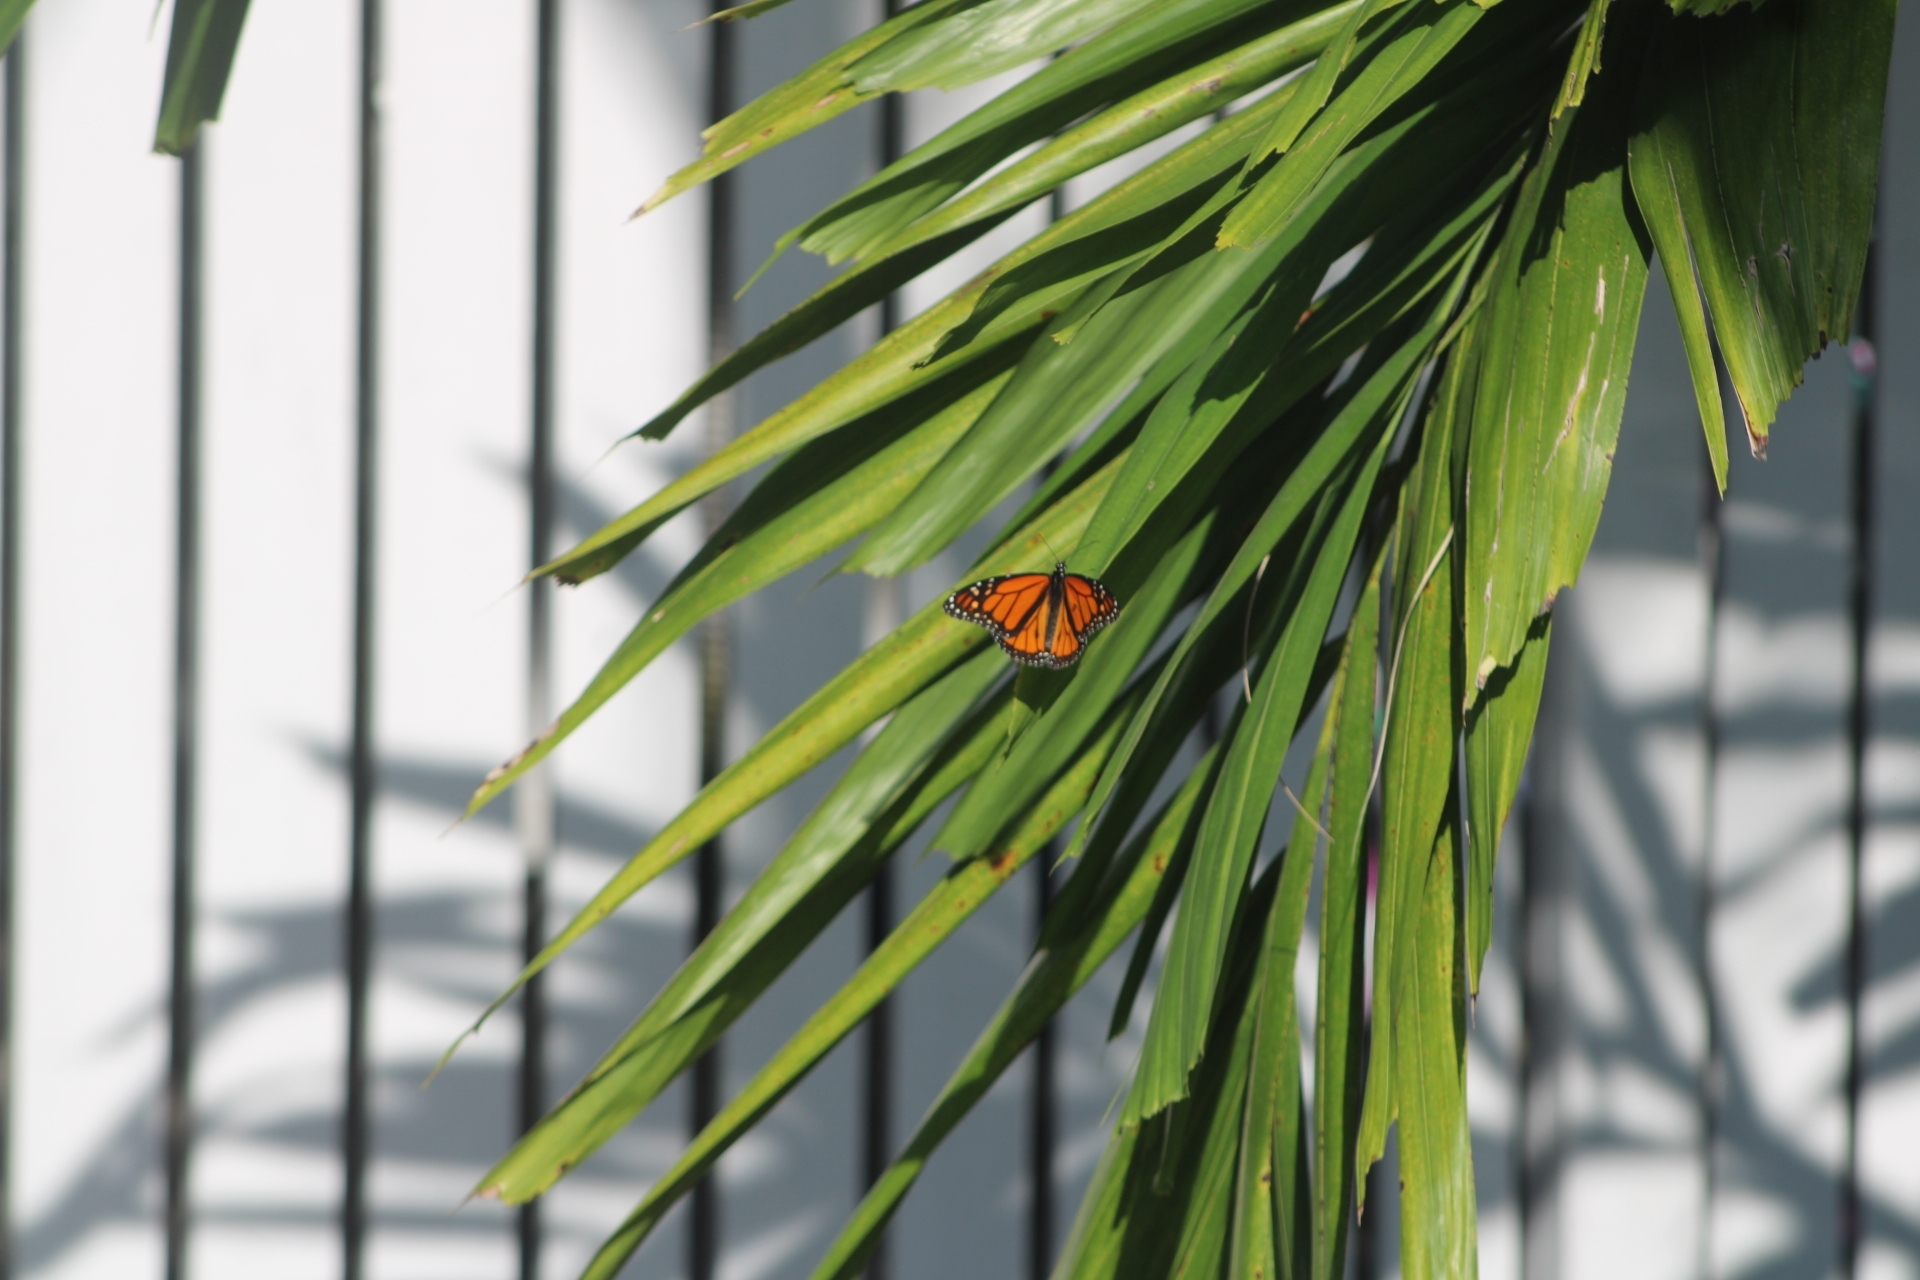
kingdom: Animalia
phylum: Arthropoda
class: Insecta
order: Lepidoptera
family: Nymphalidae
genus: Danaus
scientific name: Danaus plexippus
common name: Monarch
